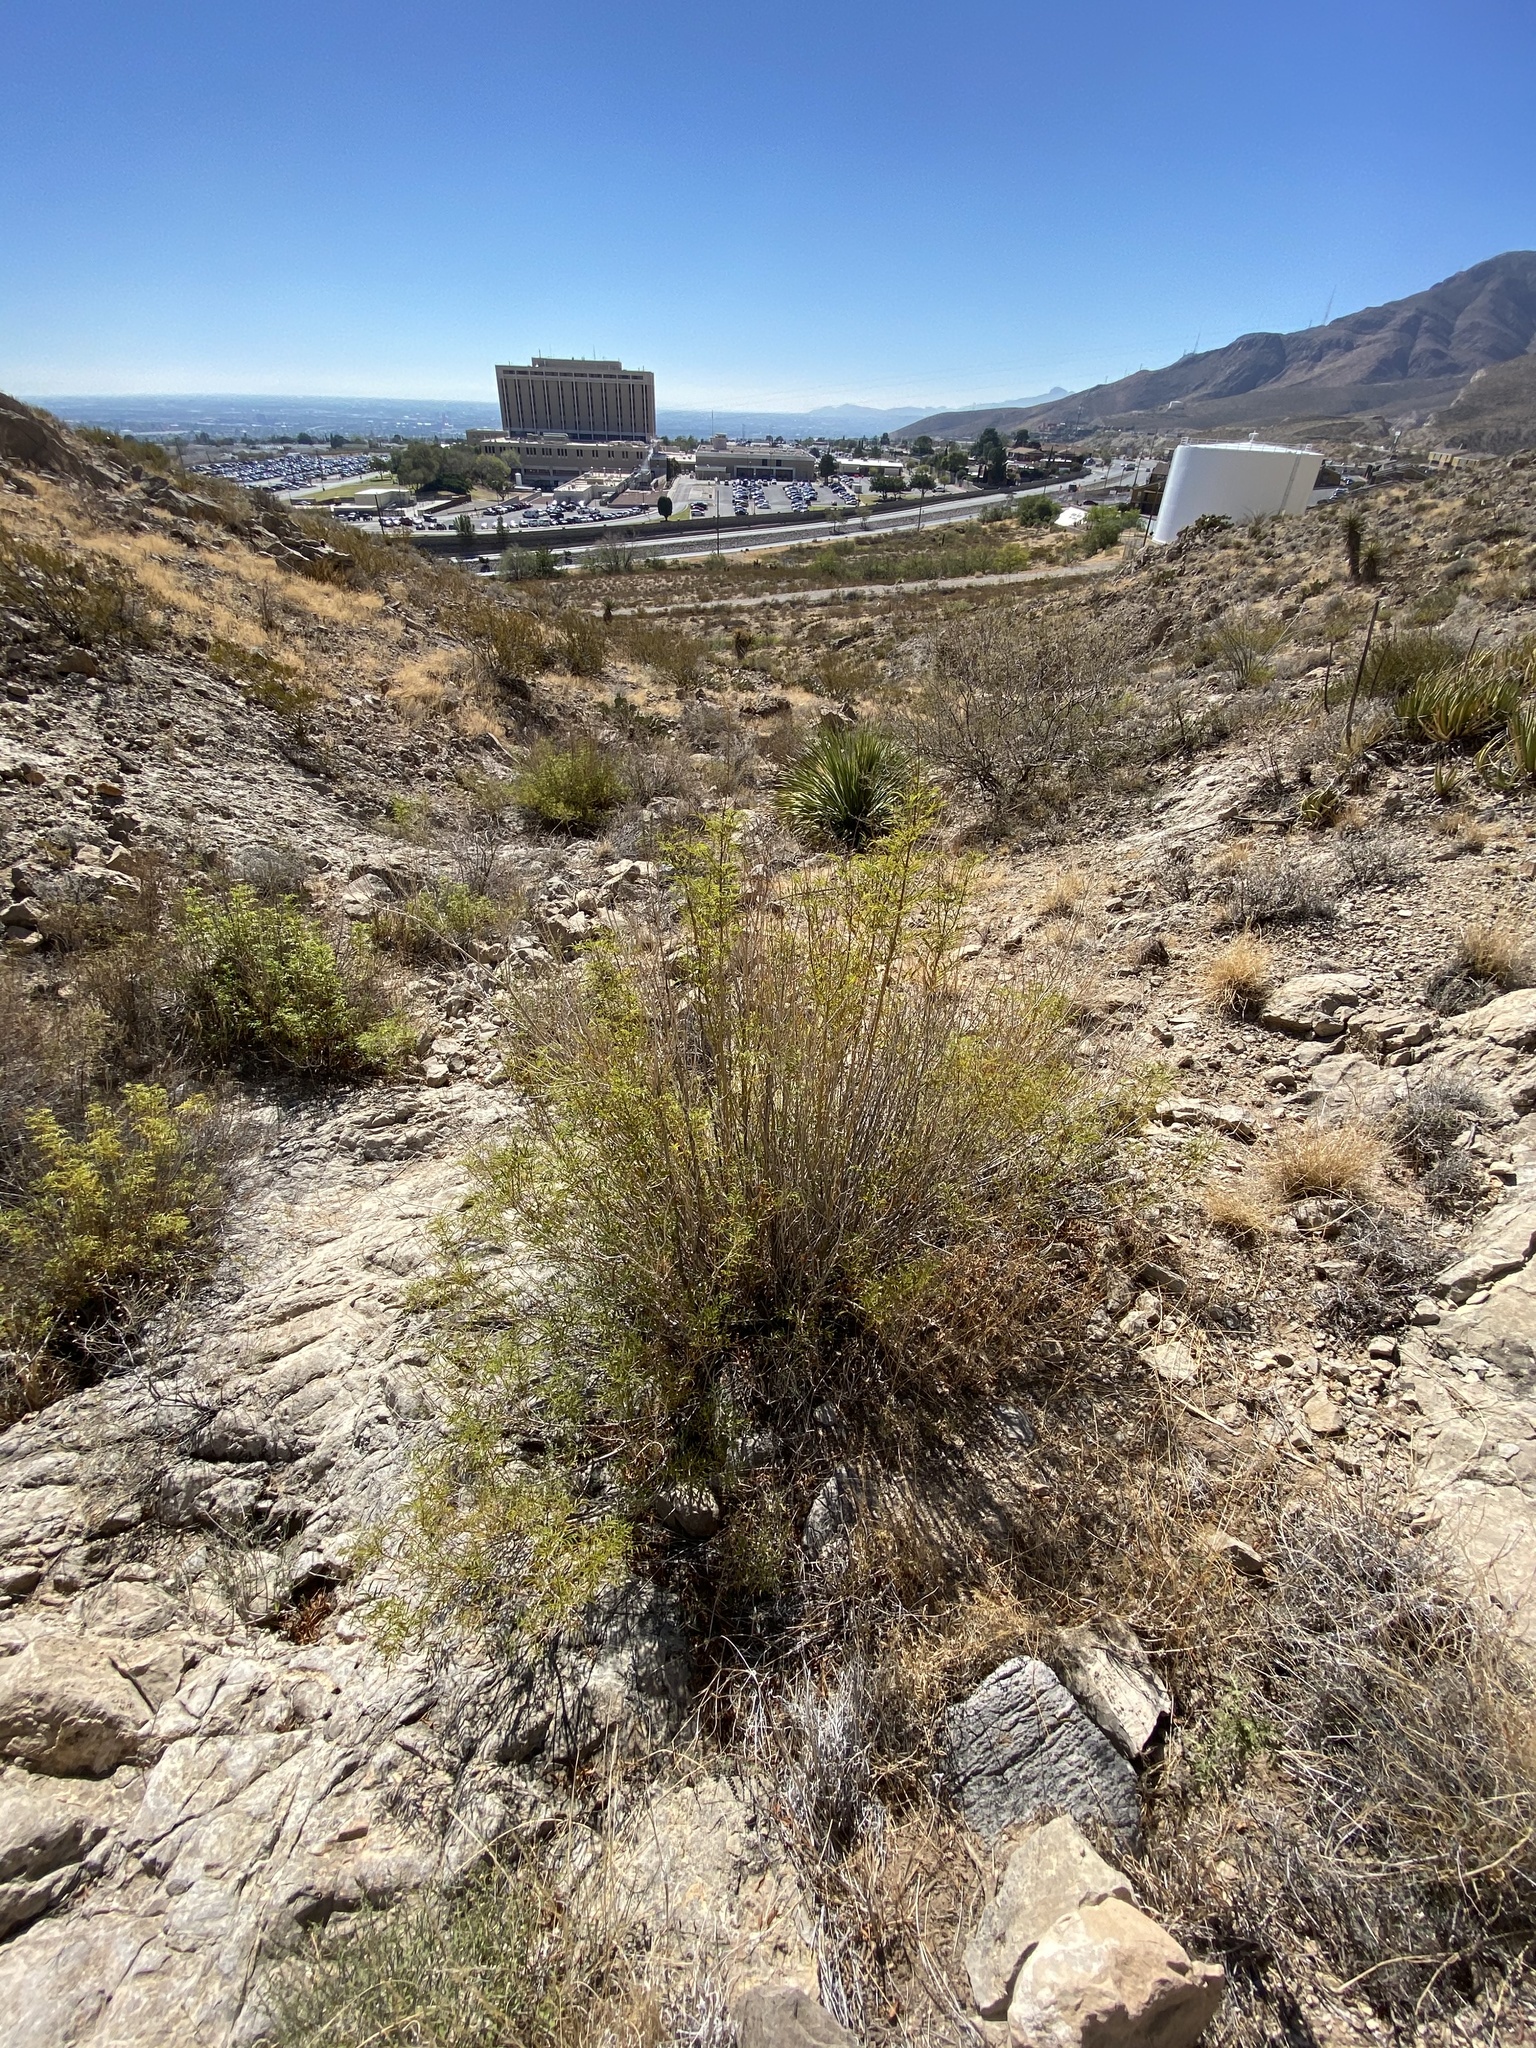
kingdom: Plantae
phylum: Tracheophyta
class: Magnoliopsida
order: Asterales
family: Asteraceae
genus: Sidneya
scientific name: Sidneya tenuifolia
